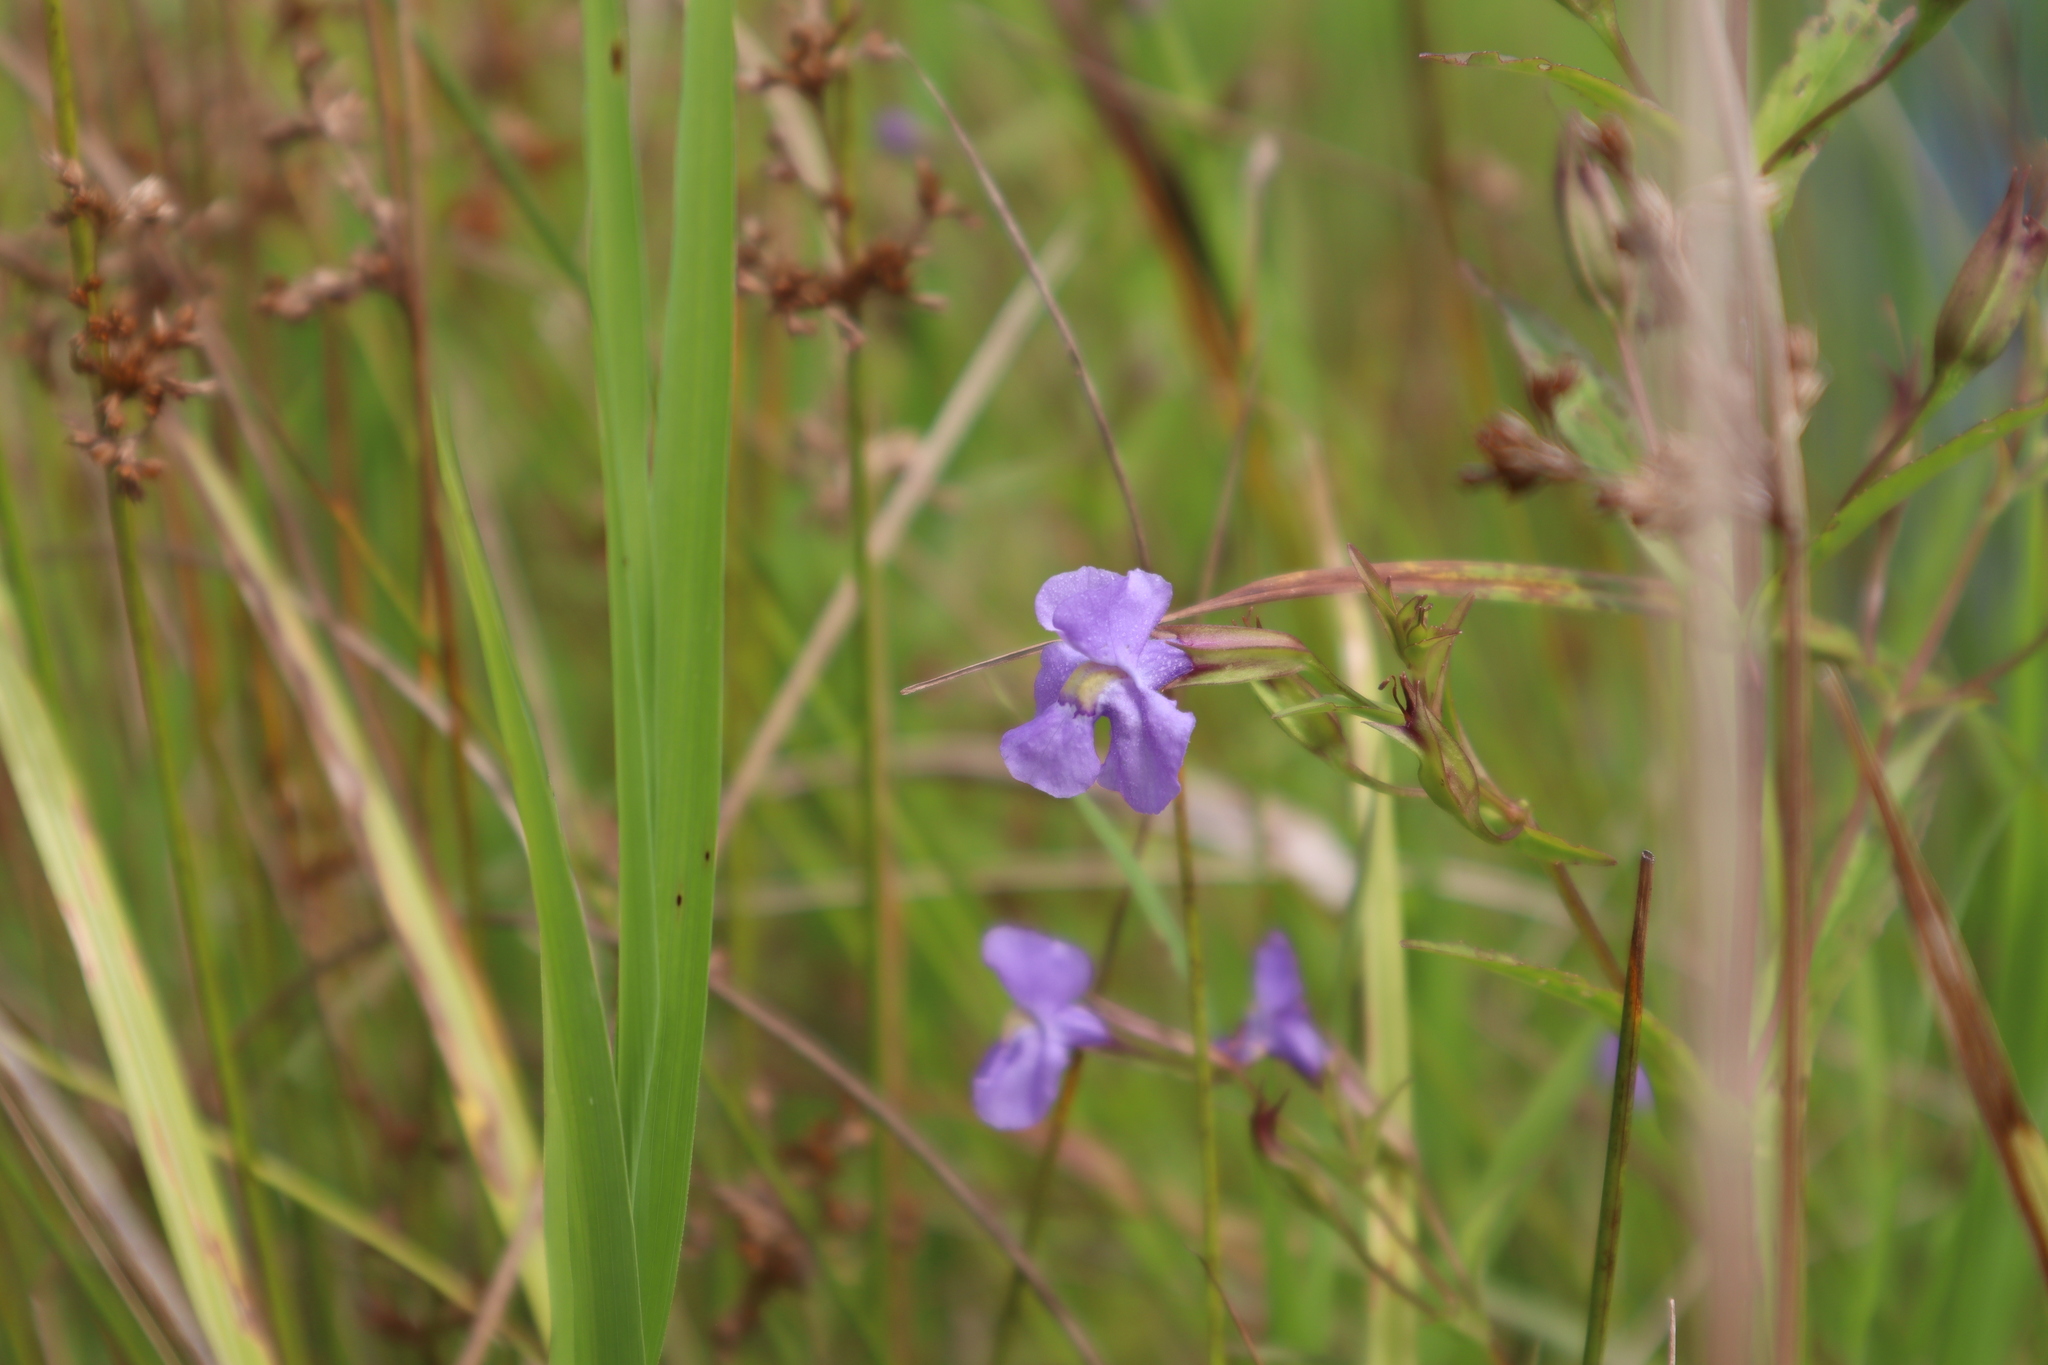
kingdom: Plantae
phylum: Tracheophyta
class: Magnoliopsida
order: Lamiales
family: Phrymaceae
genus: Mimulus
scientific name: Mimulus ringens
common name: Allegheny monkeyflower
